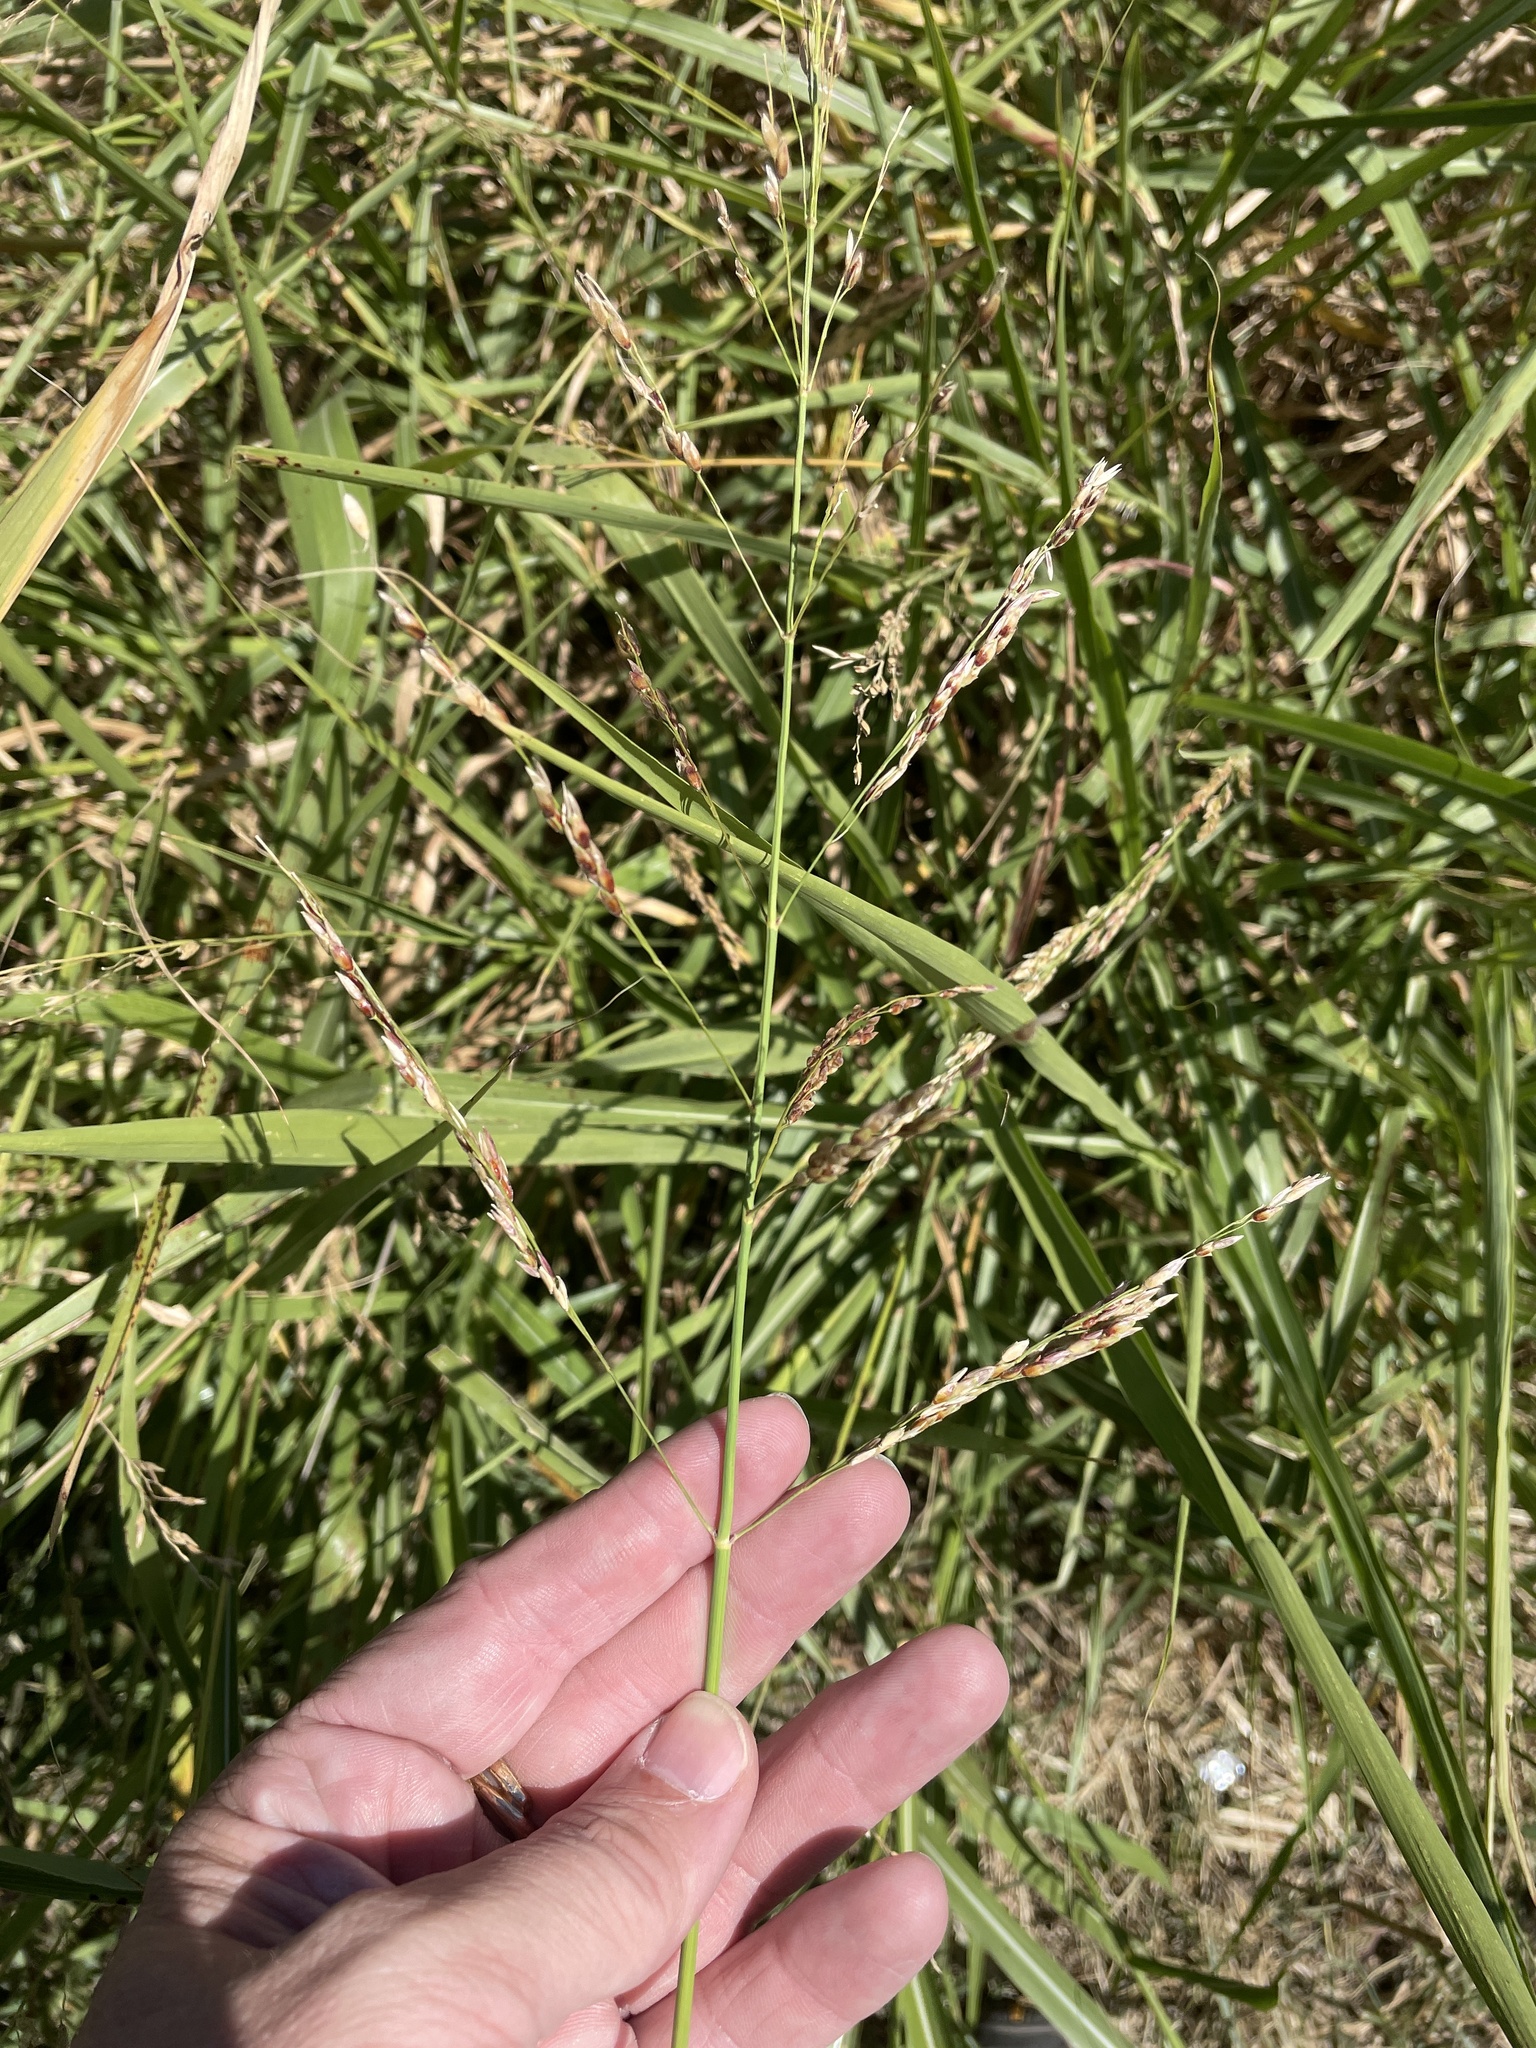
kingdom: Plantae
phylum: Tracheophyta
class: Liliopsida
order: Poales
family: Poaceae
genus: Sorghum
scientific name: Sorghum halepense
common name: Johnson-grass
